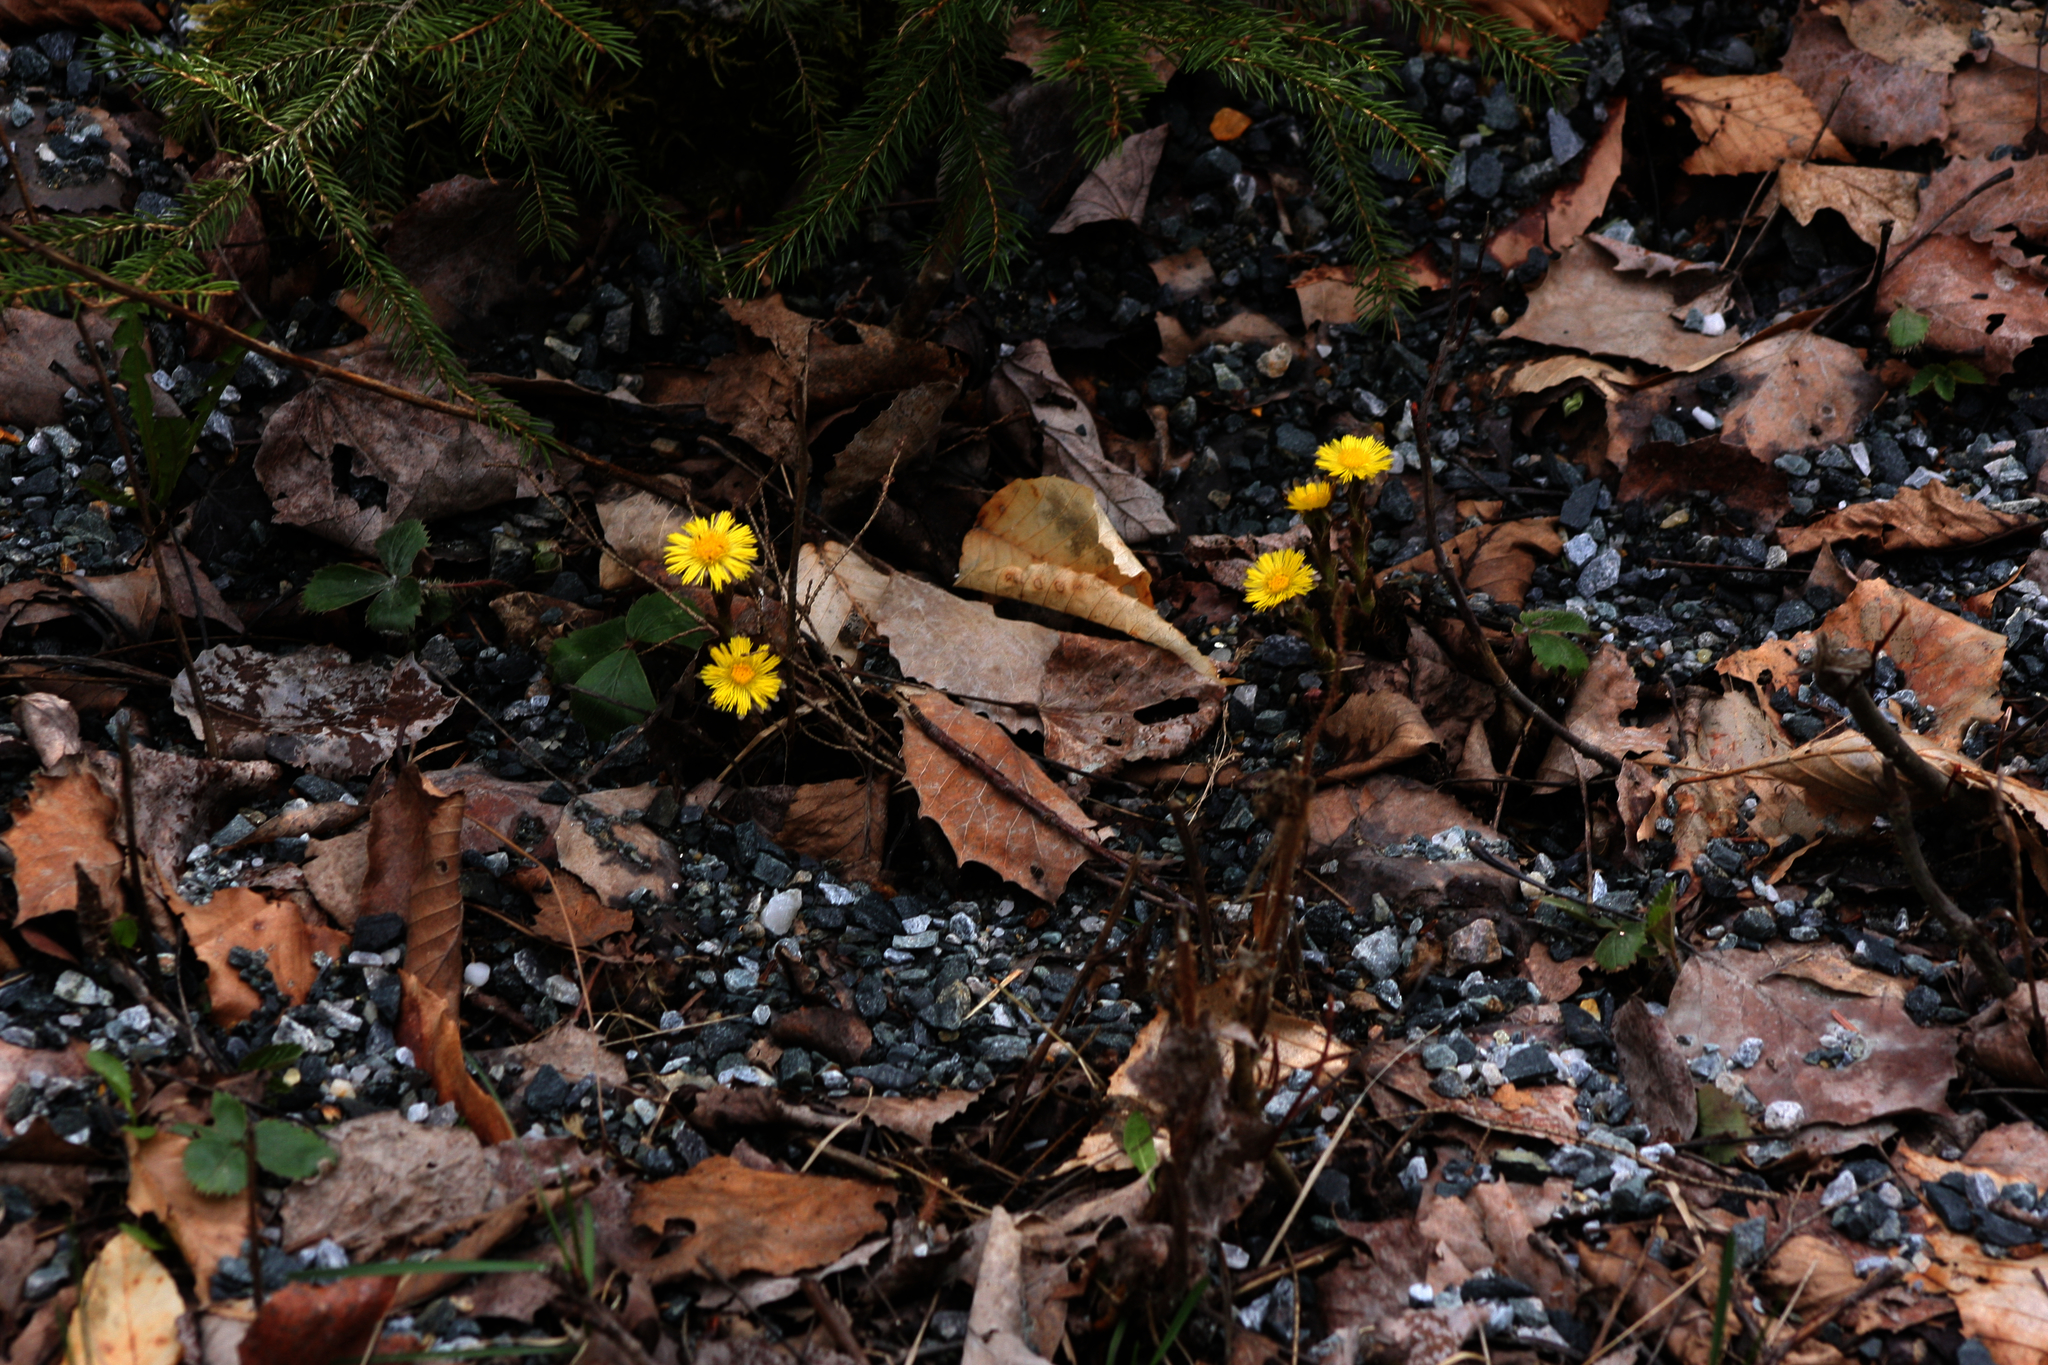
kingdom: Plantae
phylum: Tracheophyta
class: Magnoliopsida
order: Asterales
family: Asteraceae
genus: Tussilago
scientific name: Tussilago farfara
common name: Coltsfoot
